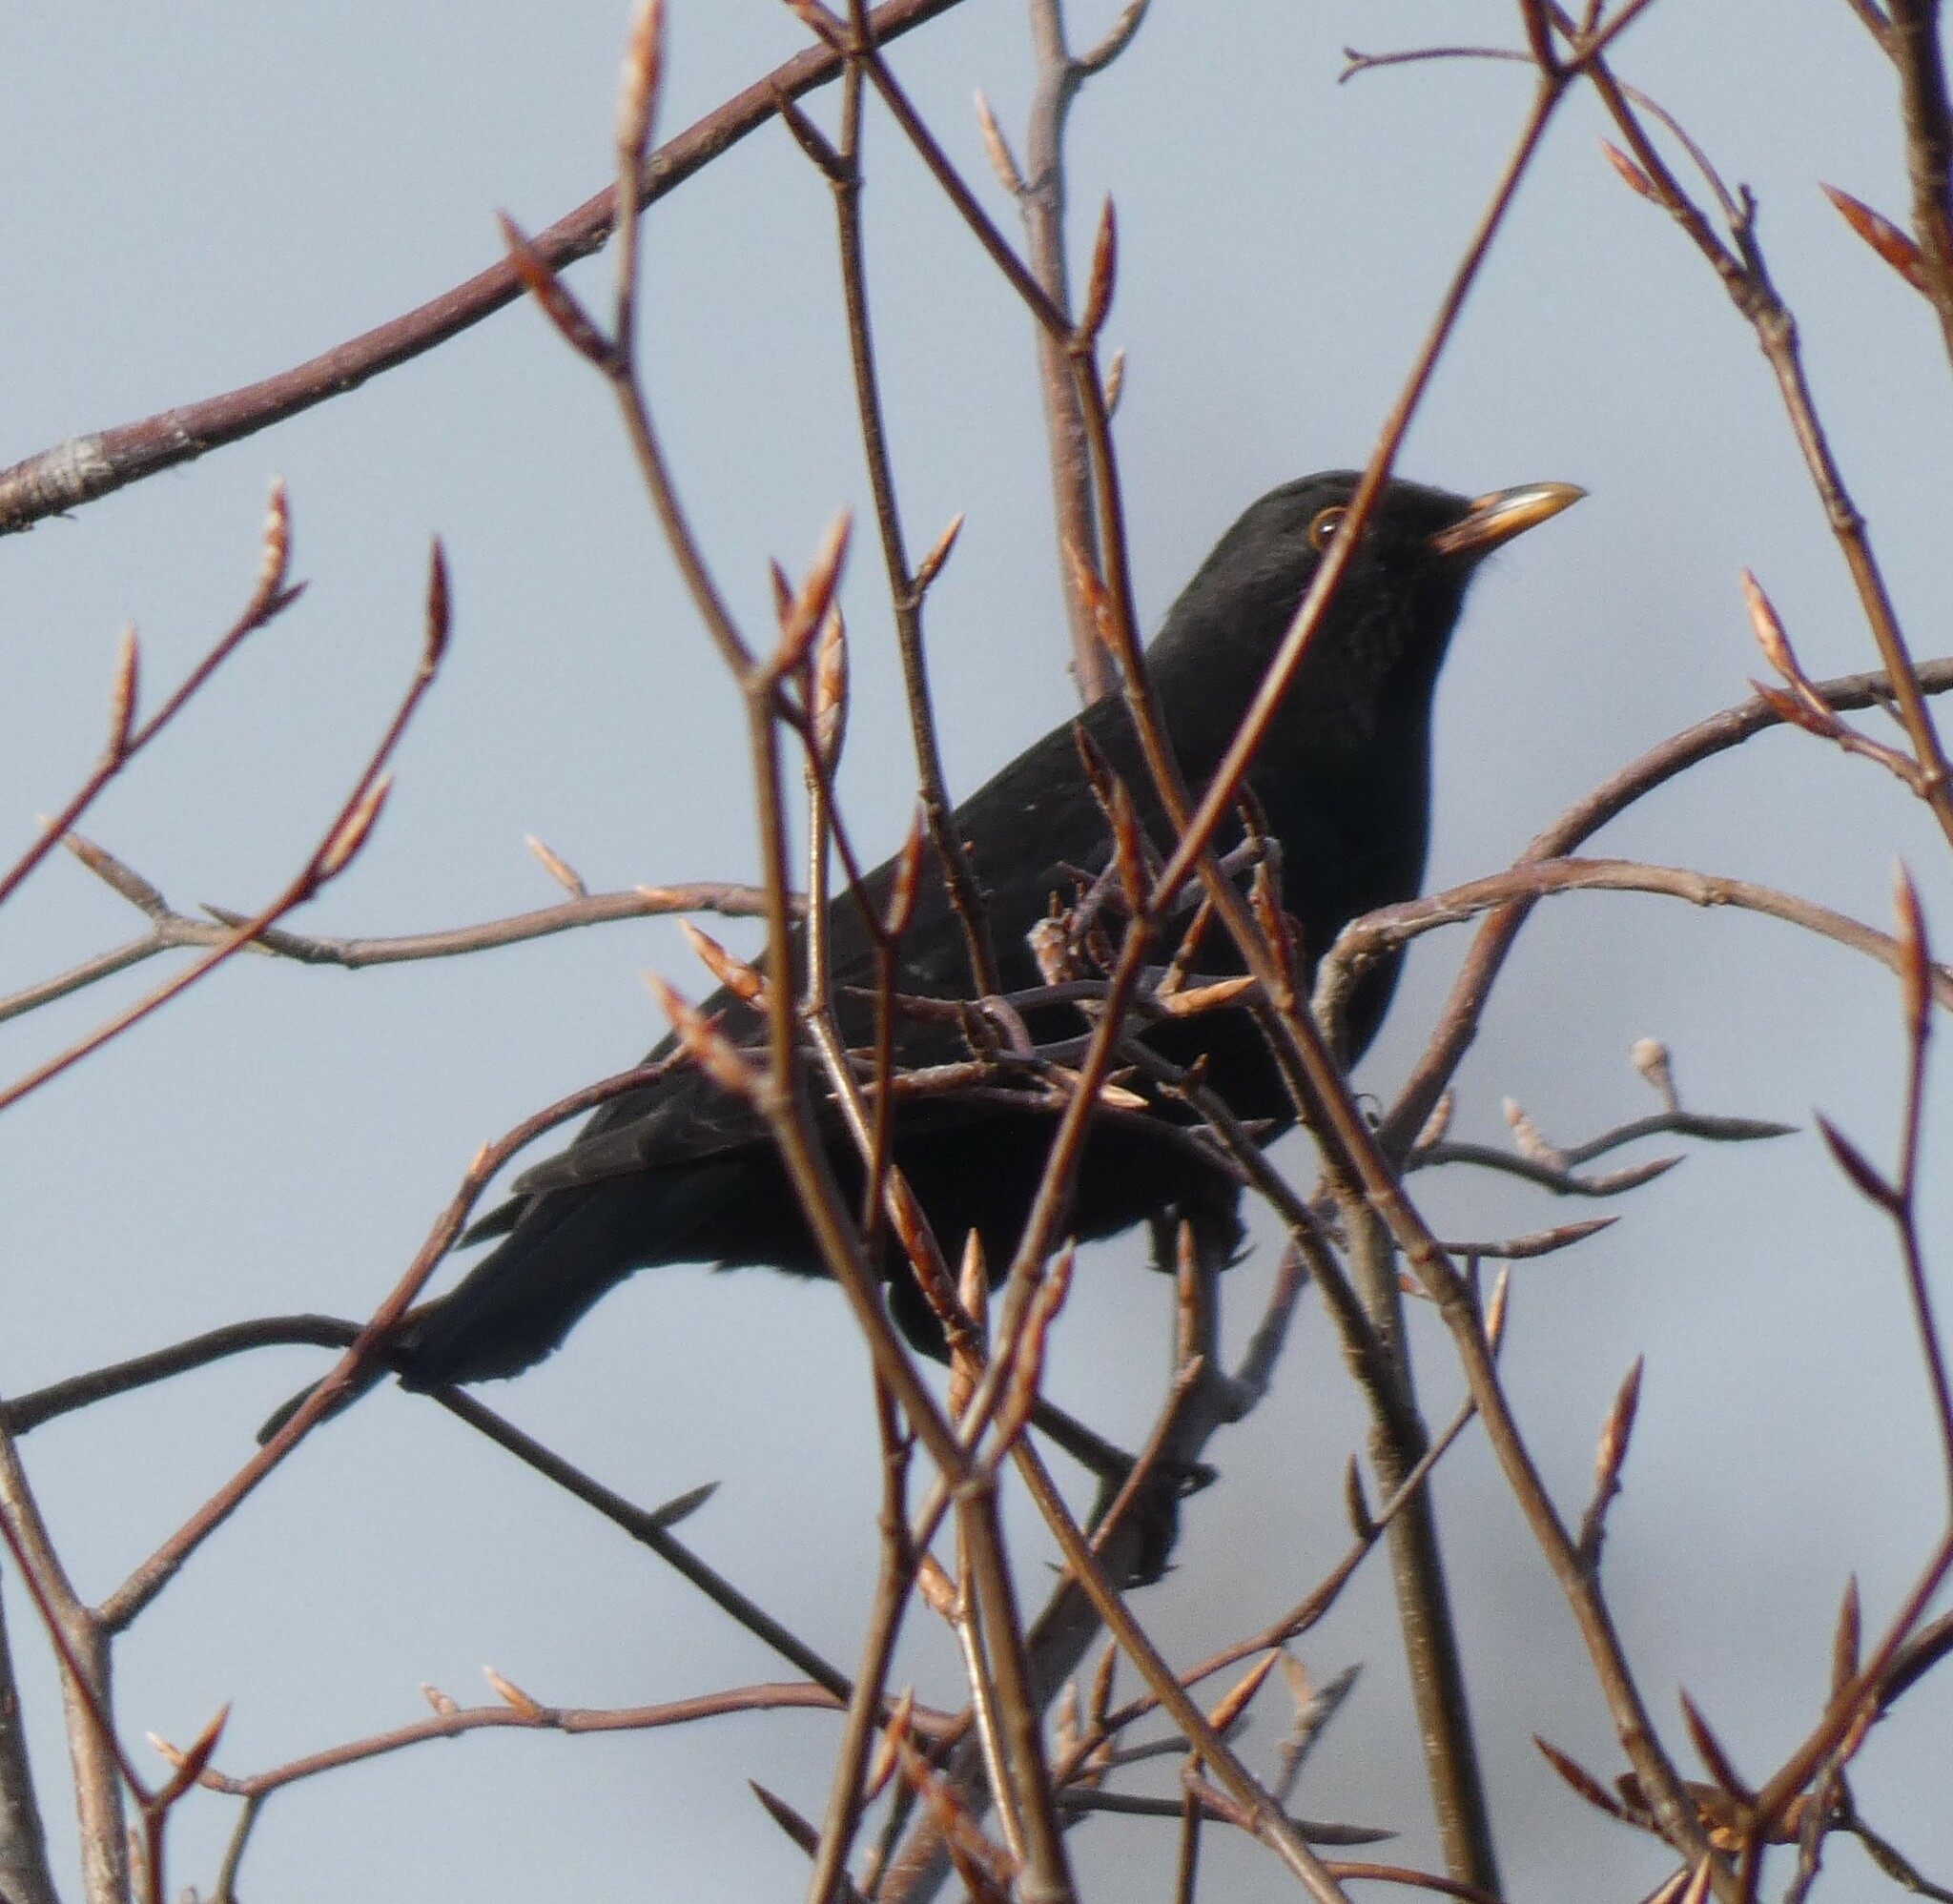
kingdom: Animalia
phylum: Chordata
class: Aves
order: Passeriformes
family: Turdidae
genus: Turdus
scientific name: Turdus merula
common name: Common blackbird
